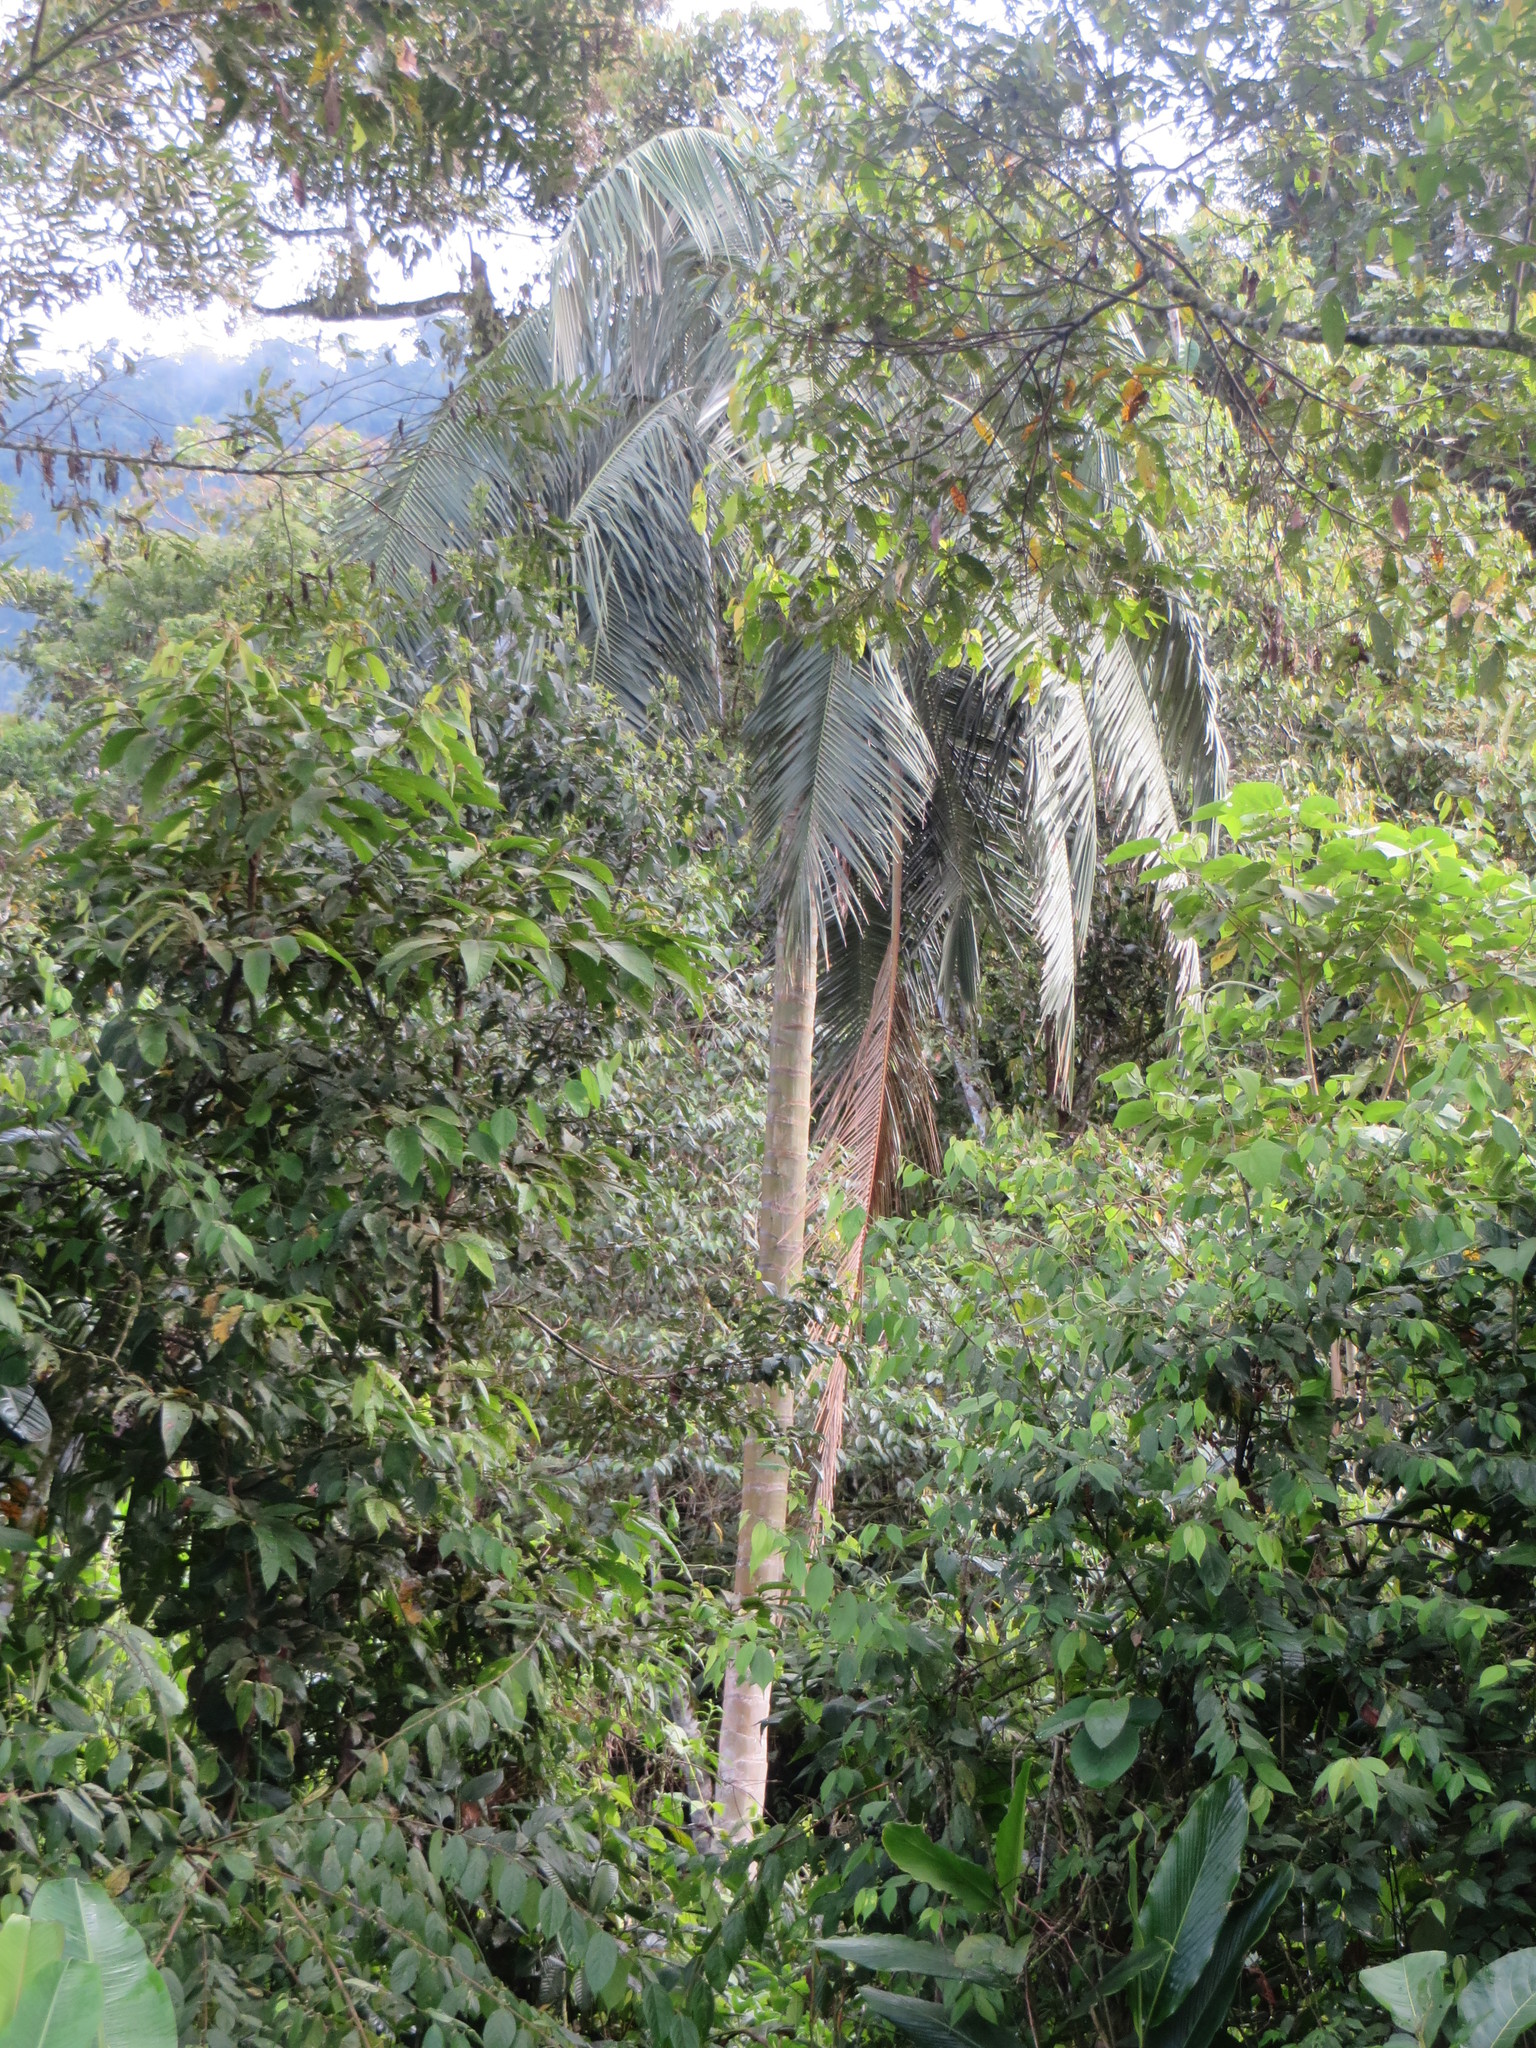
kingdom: Plantae
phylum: Tracheophyta
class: Liliopsida
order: Arecales
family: Arecaceae
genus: Ceroxylon
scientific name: Ceroxylon echinulatum
